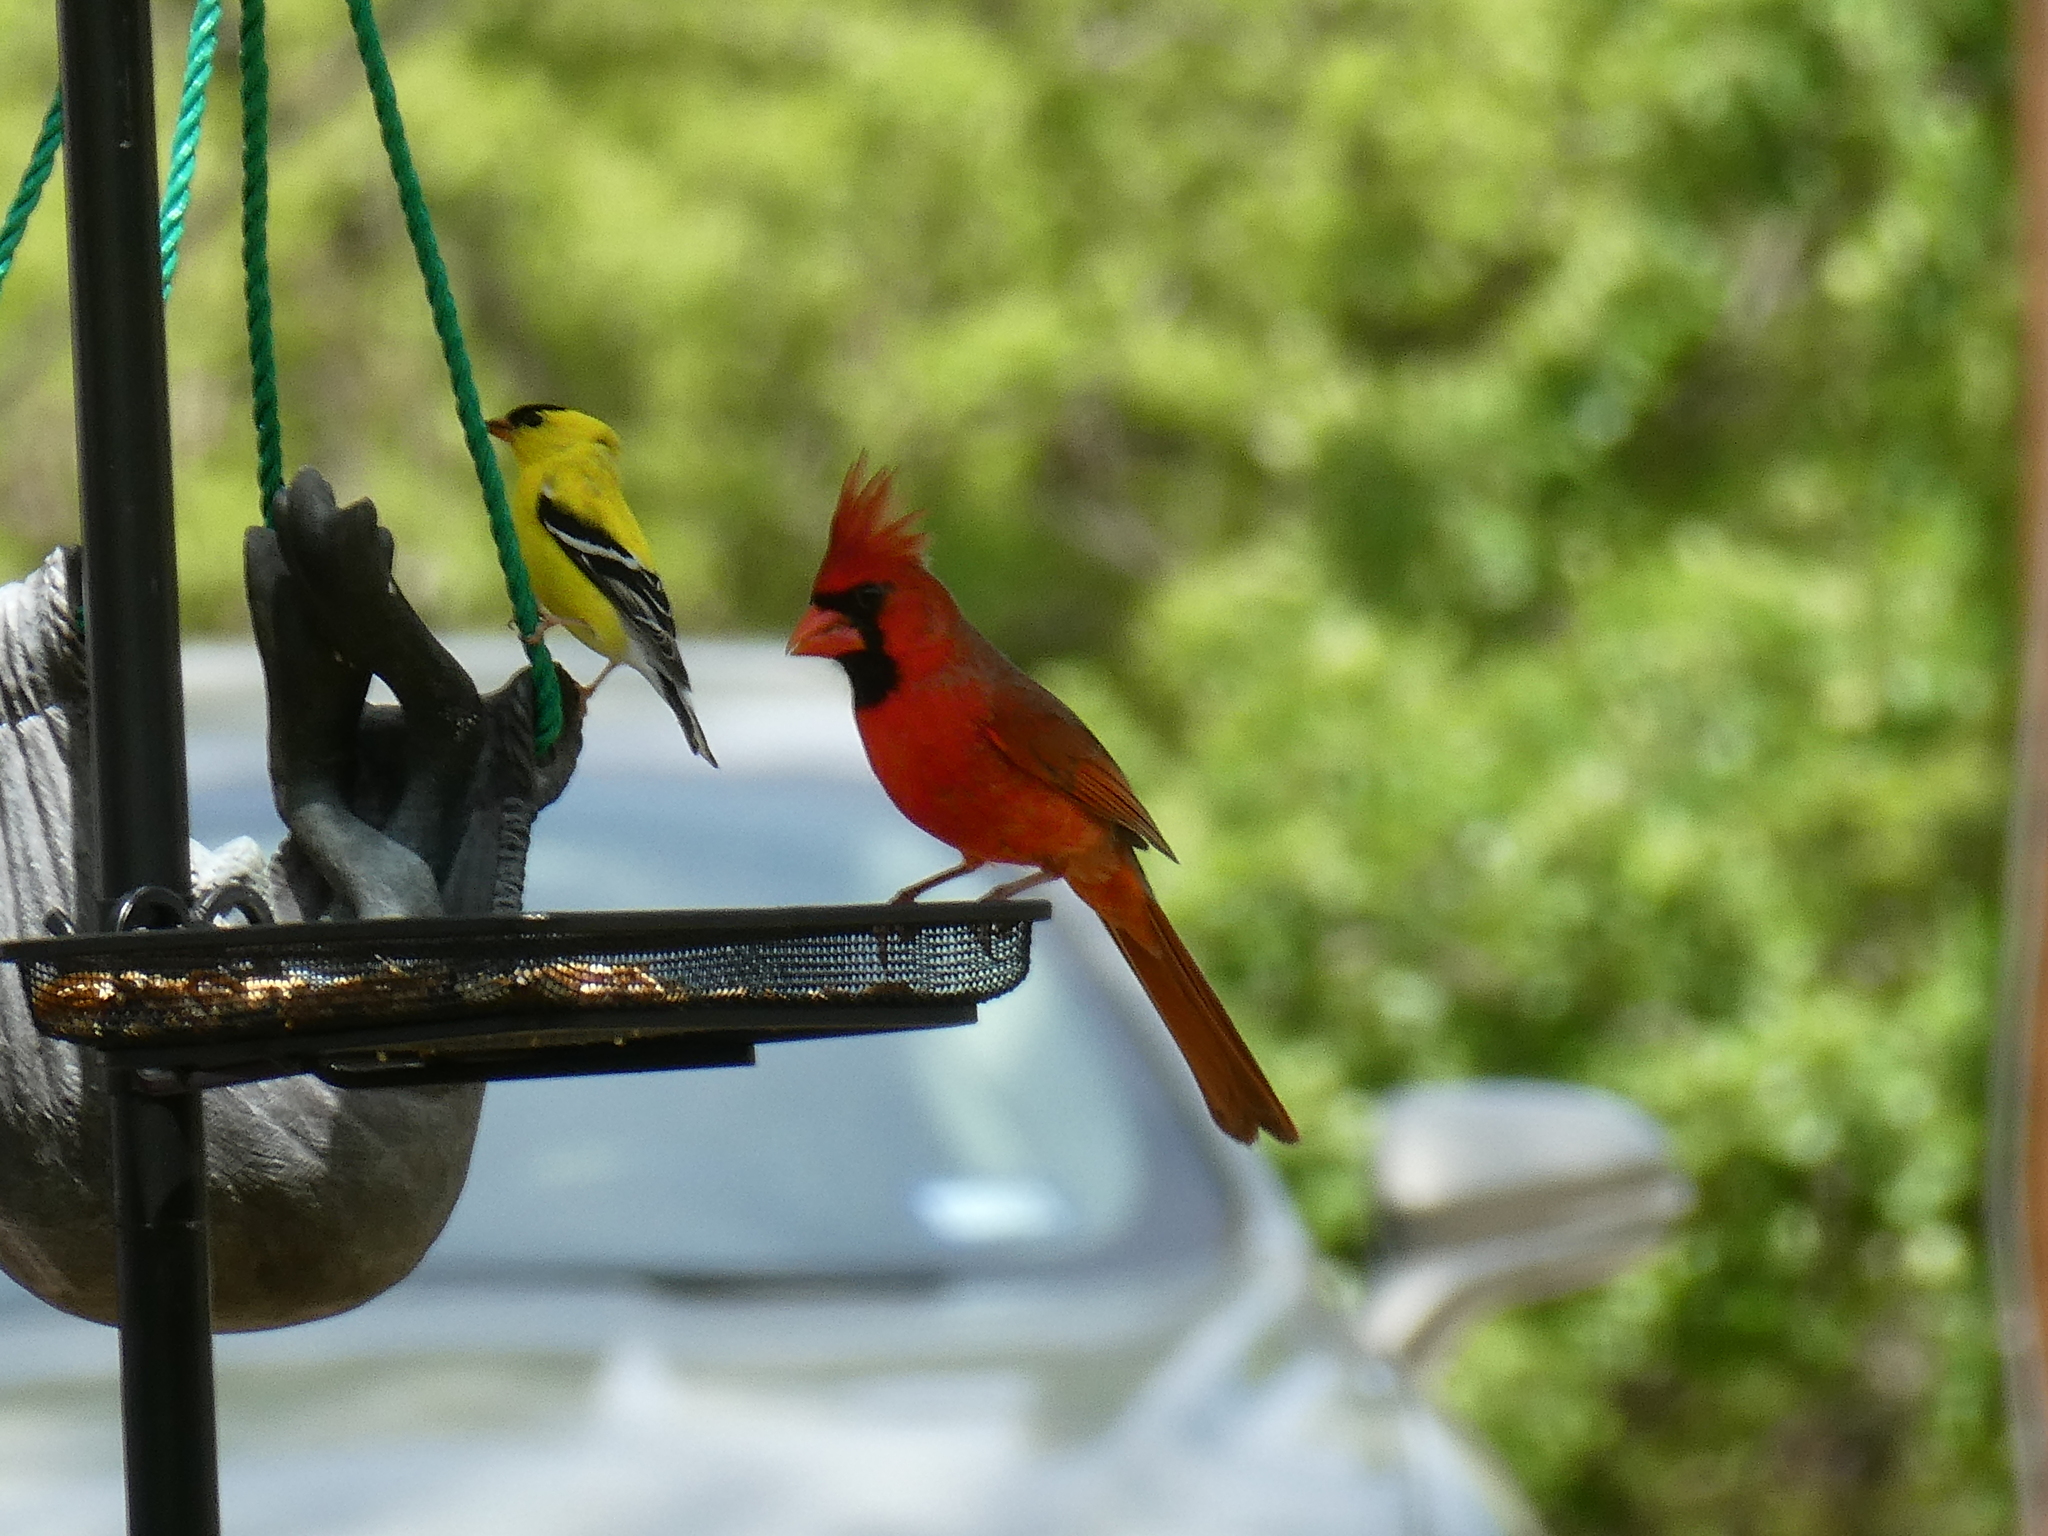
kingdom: Animalia
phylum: Chordata
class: Aves
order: Passeriformes
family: Cardinalidae
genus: Cardinalis
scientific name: Cardinalis cardinalis
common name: Northern cardinal
